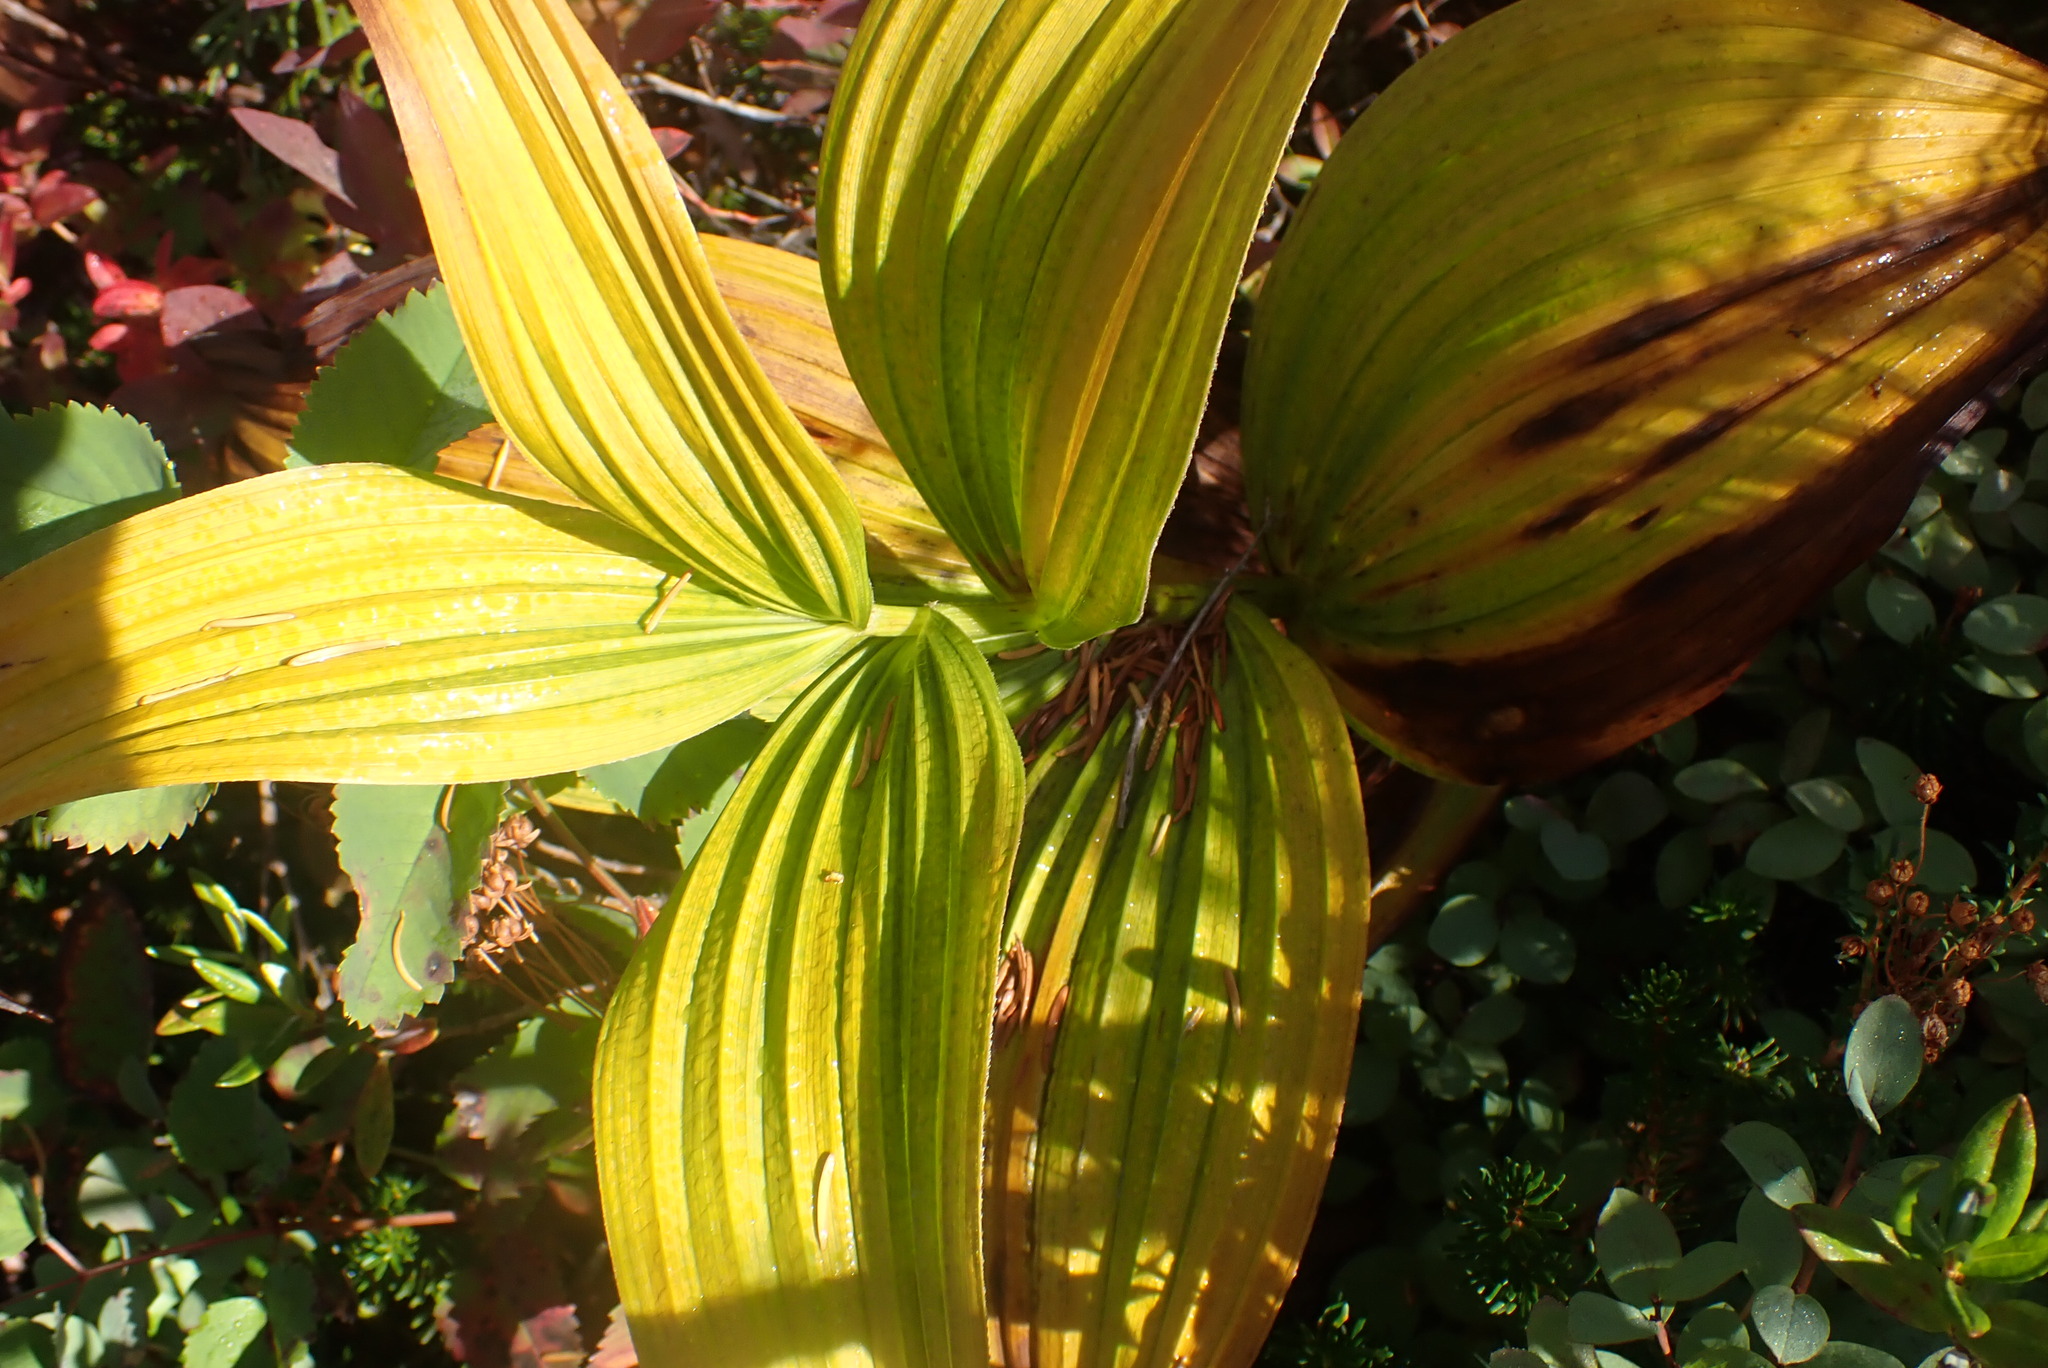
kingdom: Plantae
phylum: Tracheophyta
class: Liliopsida
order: Liliales
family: Melanthiaceae
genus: Veratrum
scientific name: Veratrum viride
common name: American false hellebore
